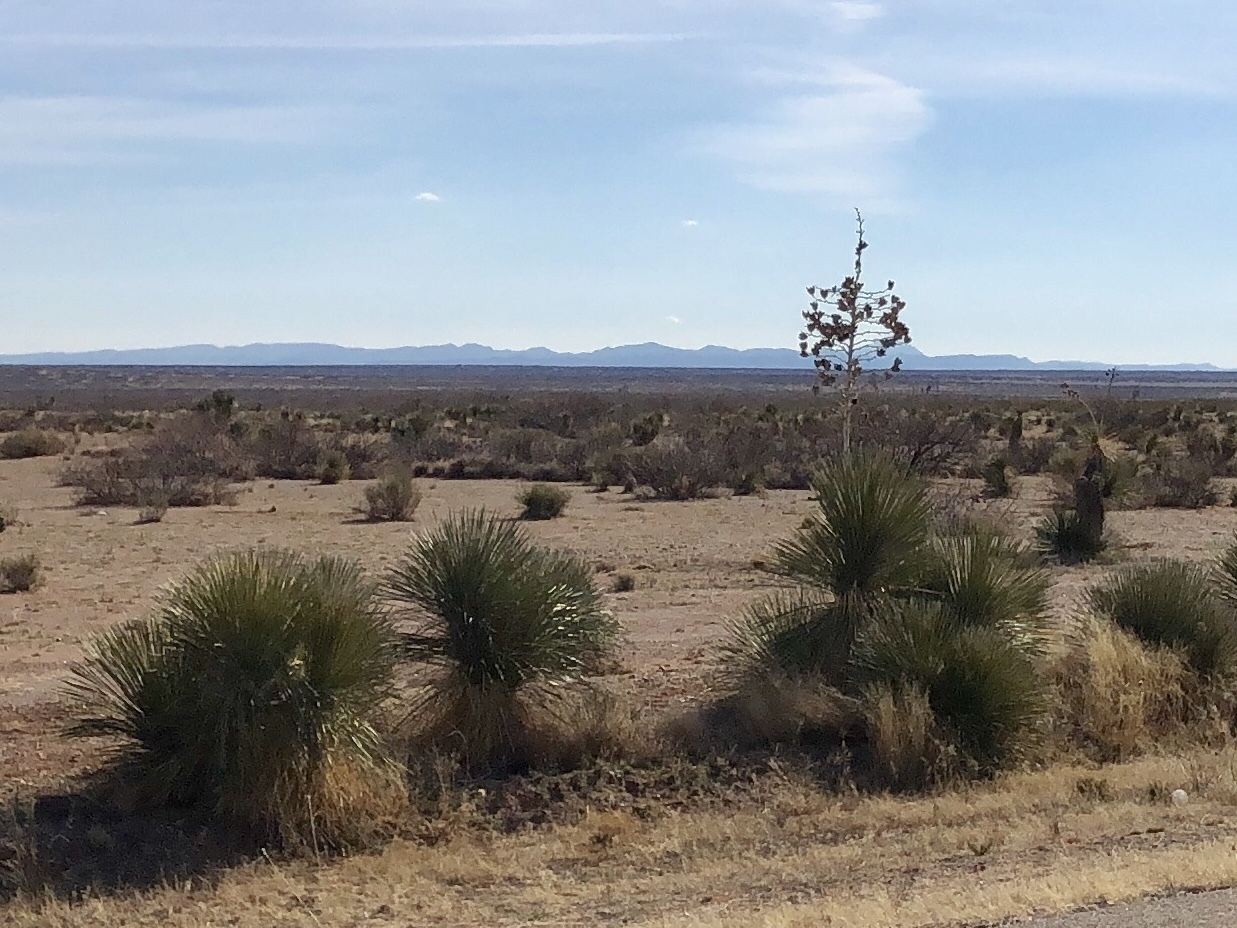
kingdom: Plantae
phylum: Tracheophyta
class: Liliopsida
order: Asparagales
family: Asparagaceae
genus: Yucca
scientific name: Yucca elata
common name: Palmella
